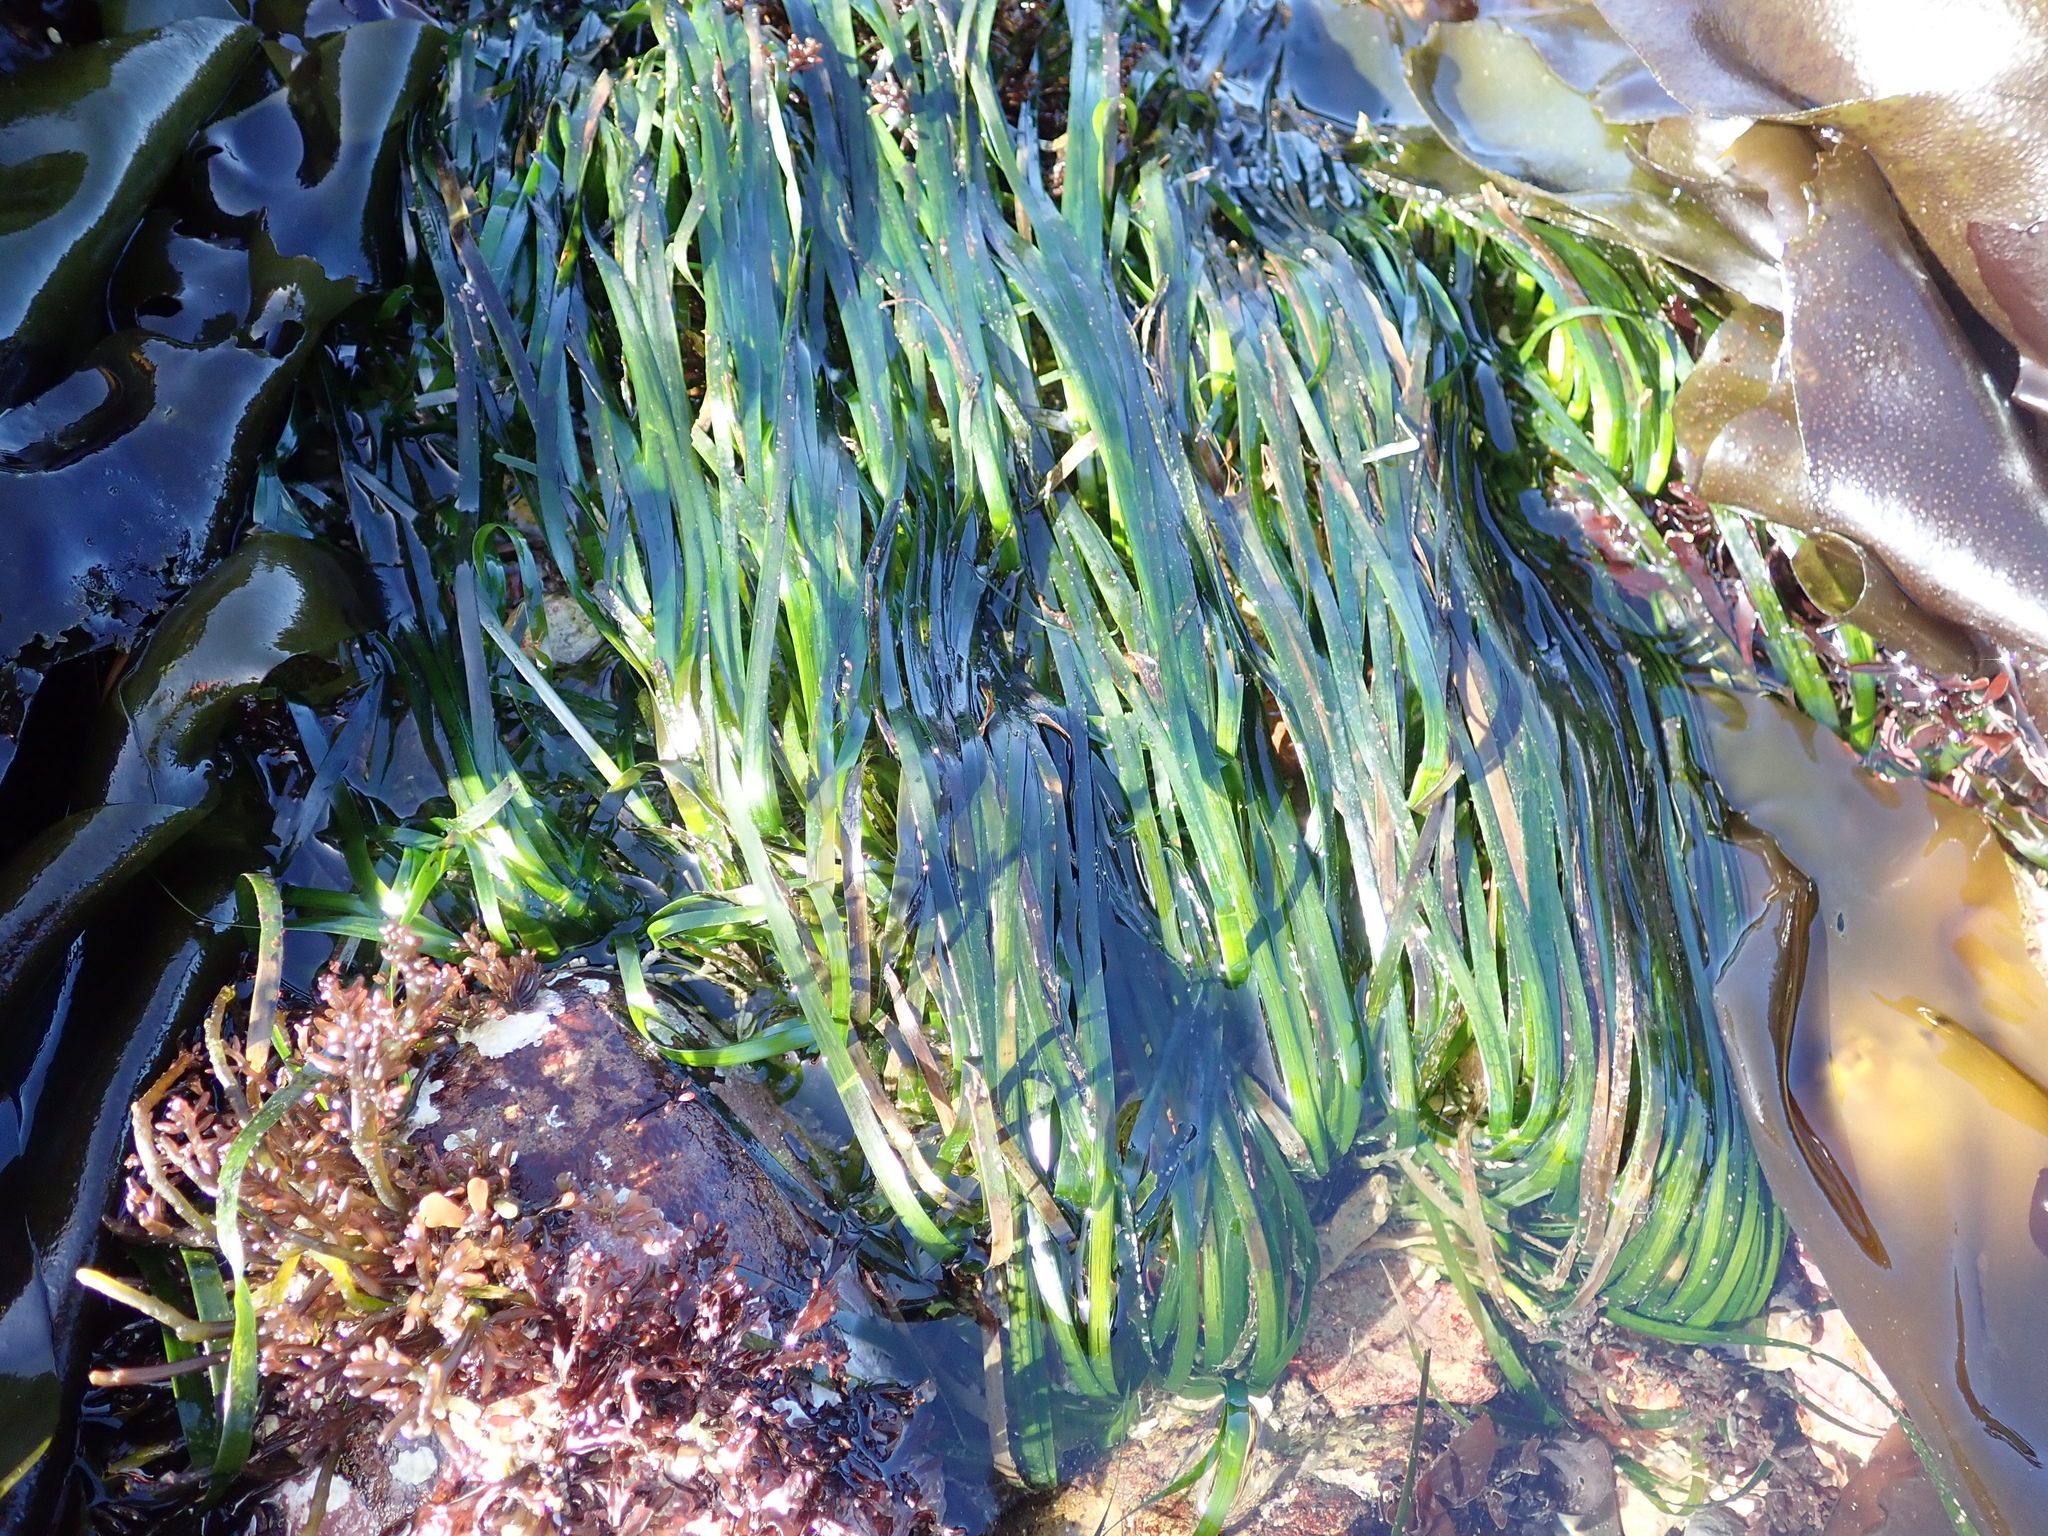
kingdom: Plantae
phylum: Tracheophyta
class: Liliopsida
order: Alismatales
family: Zosteraceae
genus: Phyllospadix
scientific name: Phyllospadix scouleri
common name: Species code: ps
